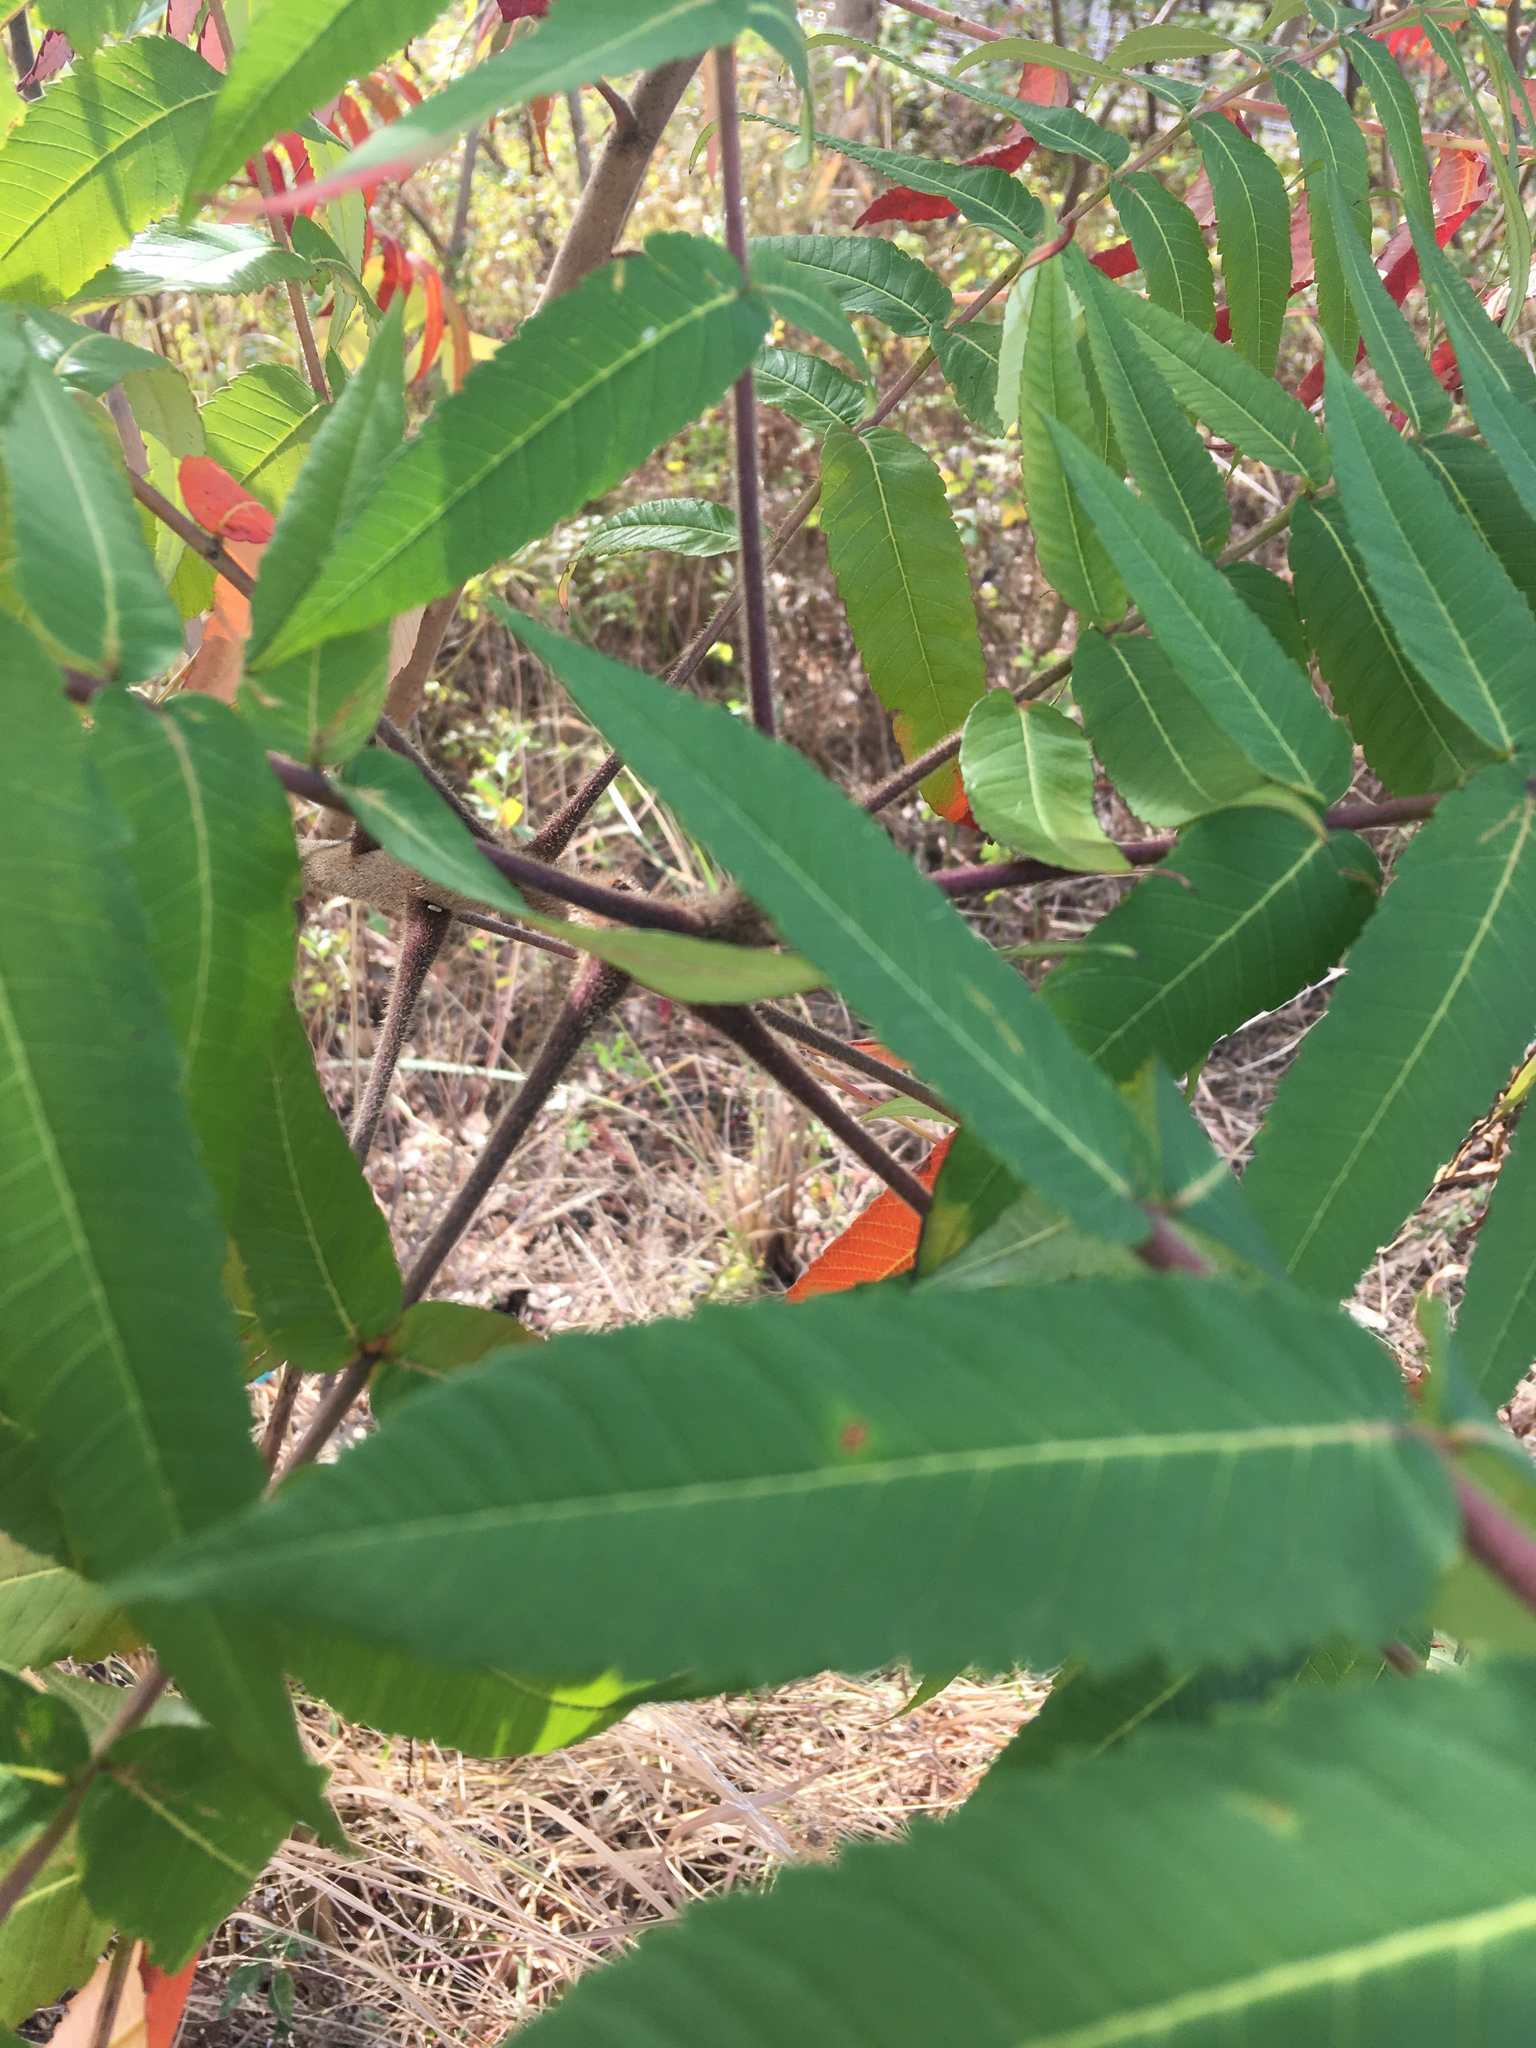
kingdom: Plantae
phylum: Tracheophyta
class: Magnoliopsida
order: Sapindales
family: Anacardiaceae
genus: Rhus
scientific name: Rhus typhina
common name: Staghorn sumac
